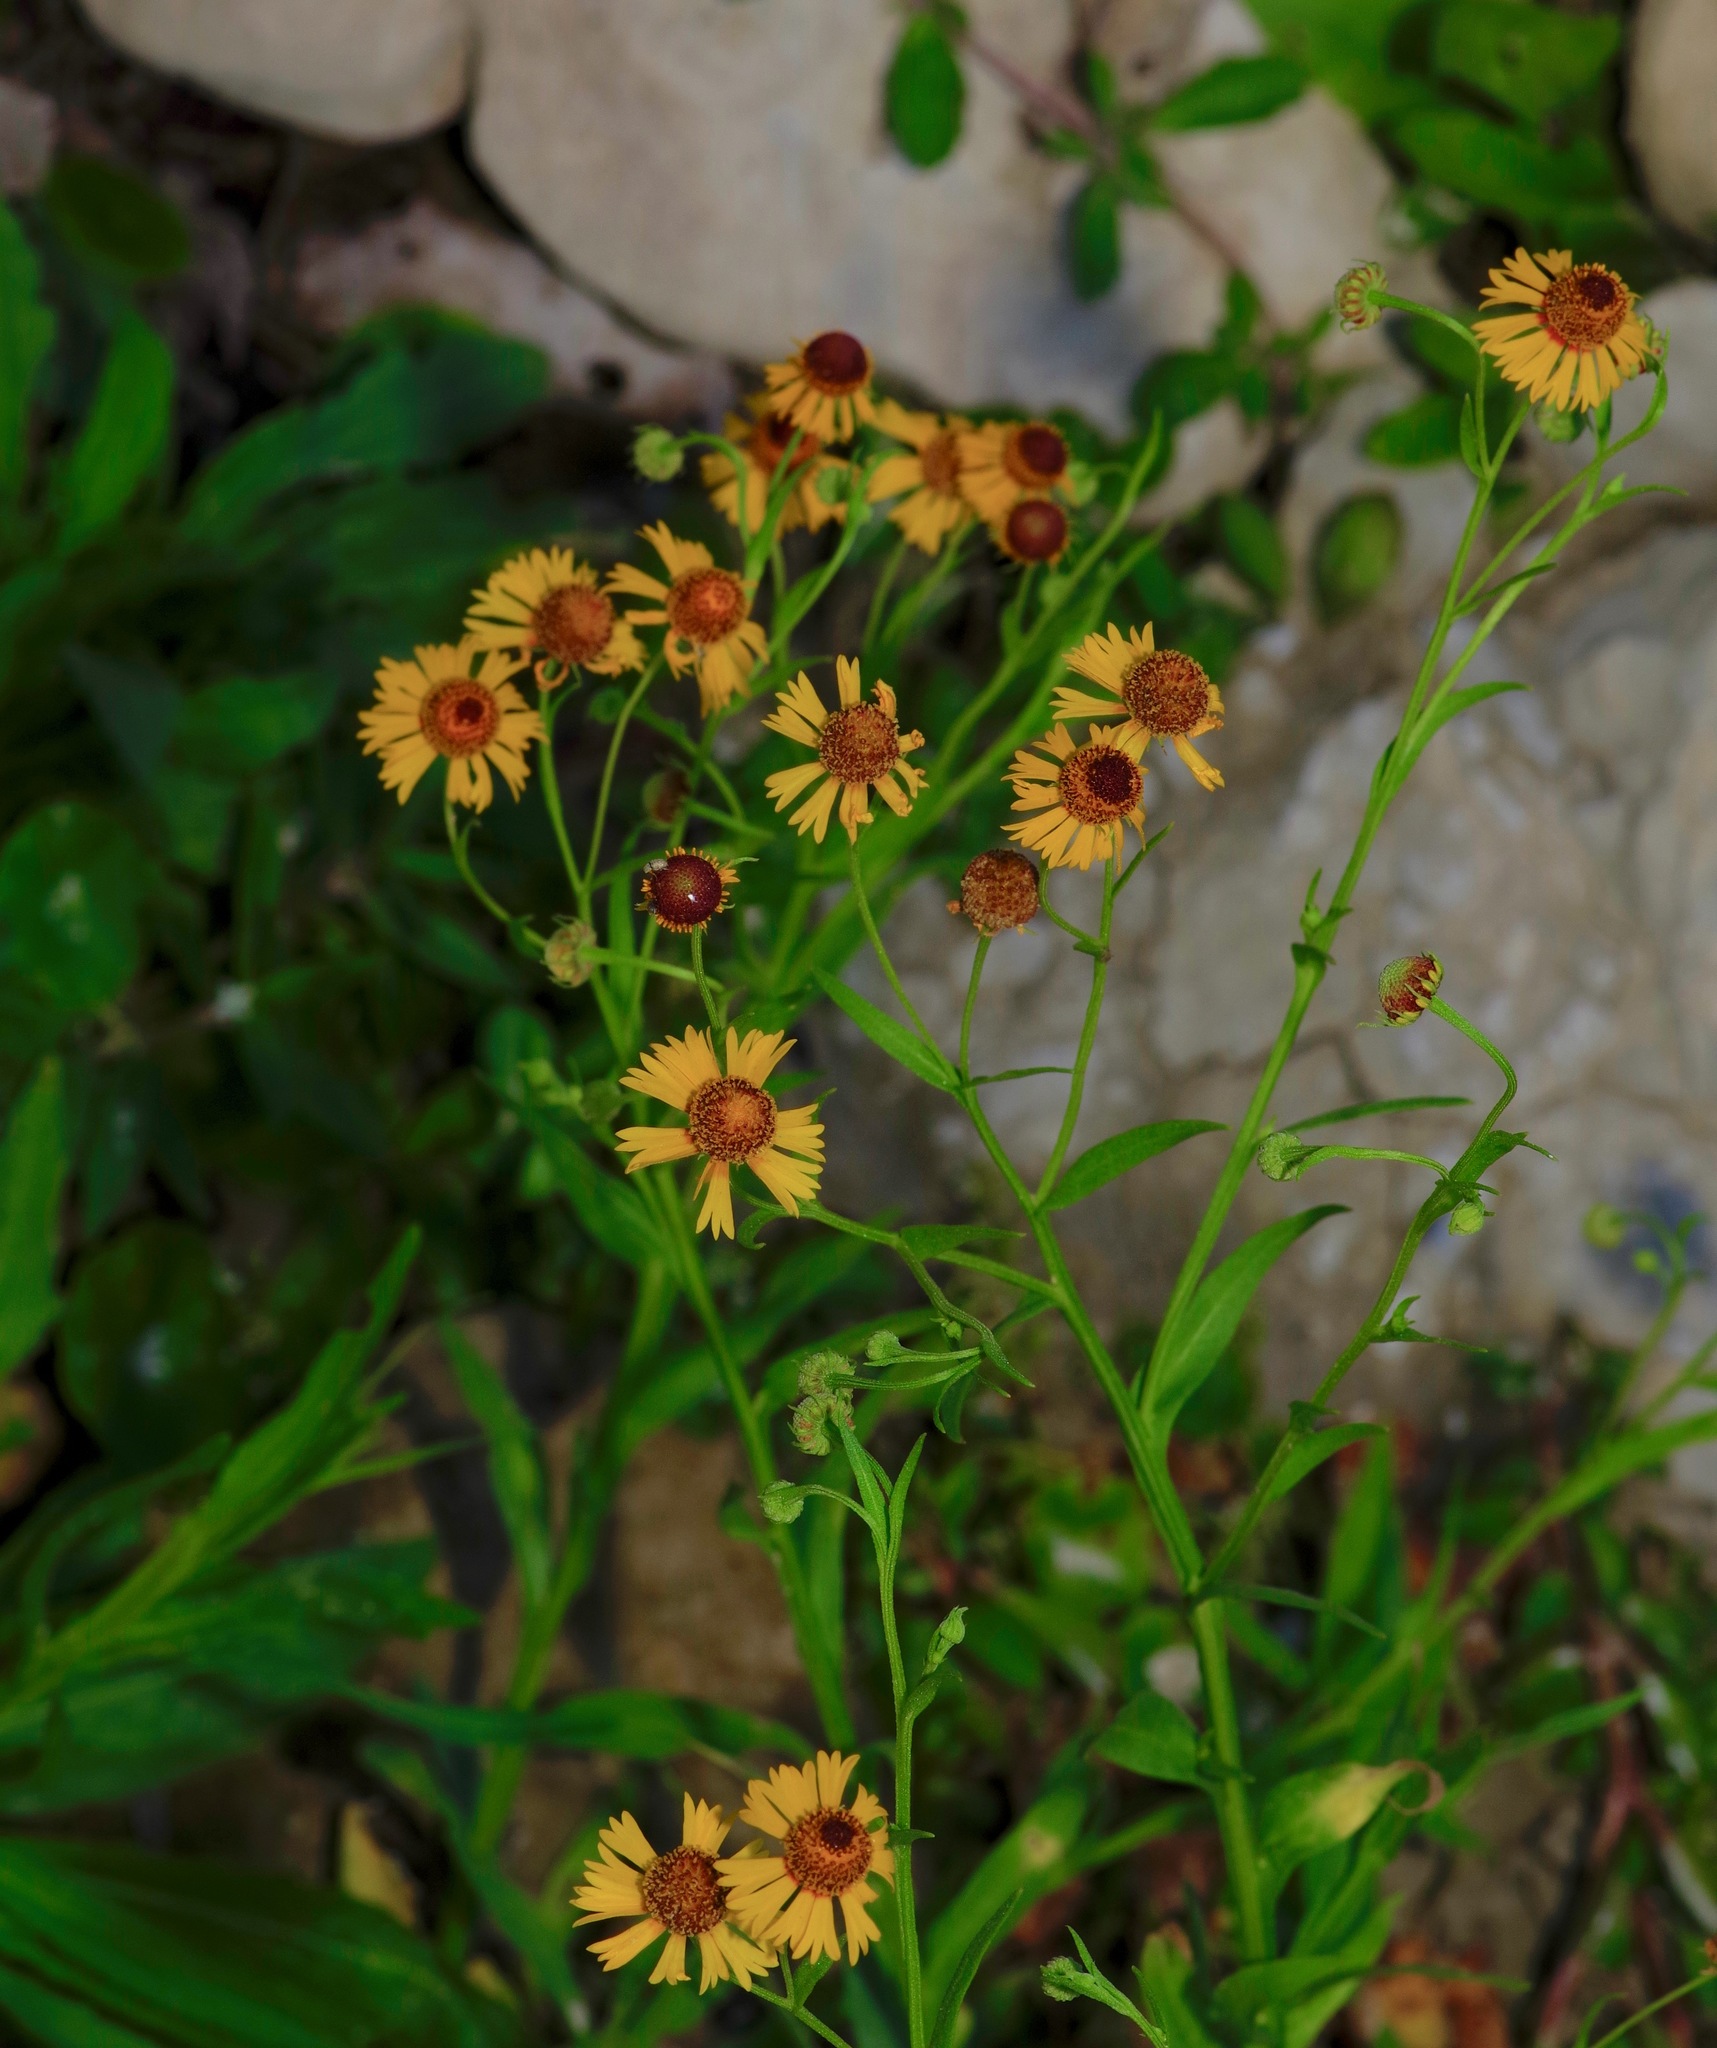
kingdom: Plantae
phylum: Tracheophyta
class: Magnoliopsida
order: Asterales
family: Asteraceae
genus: Helenium
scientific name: Helenium elegans
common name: Pretty sneezeweed
